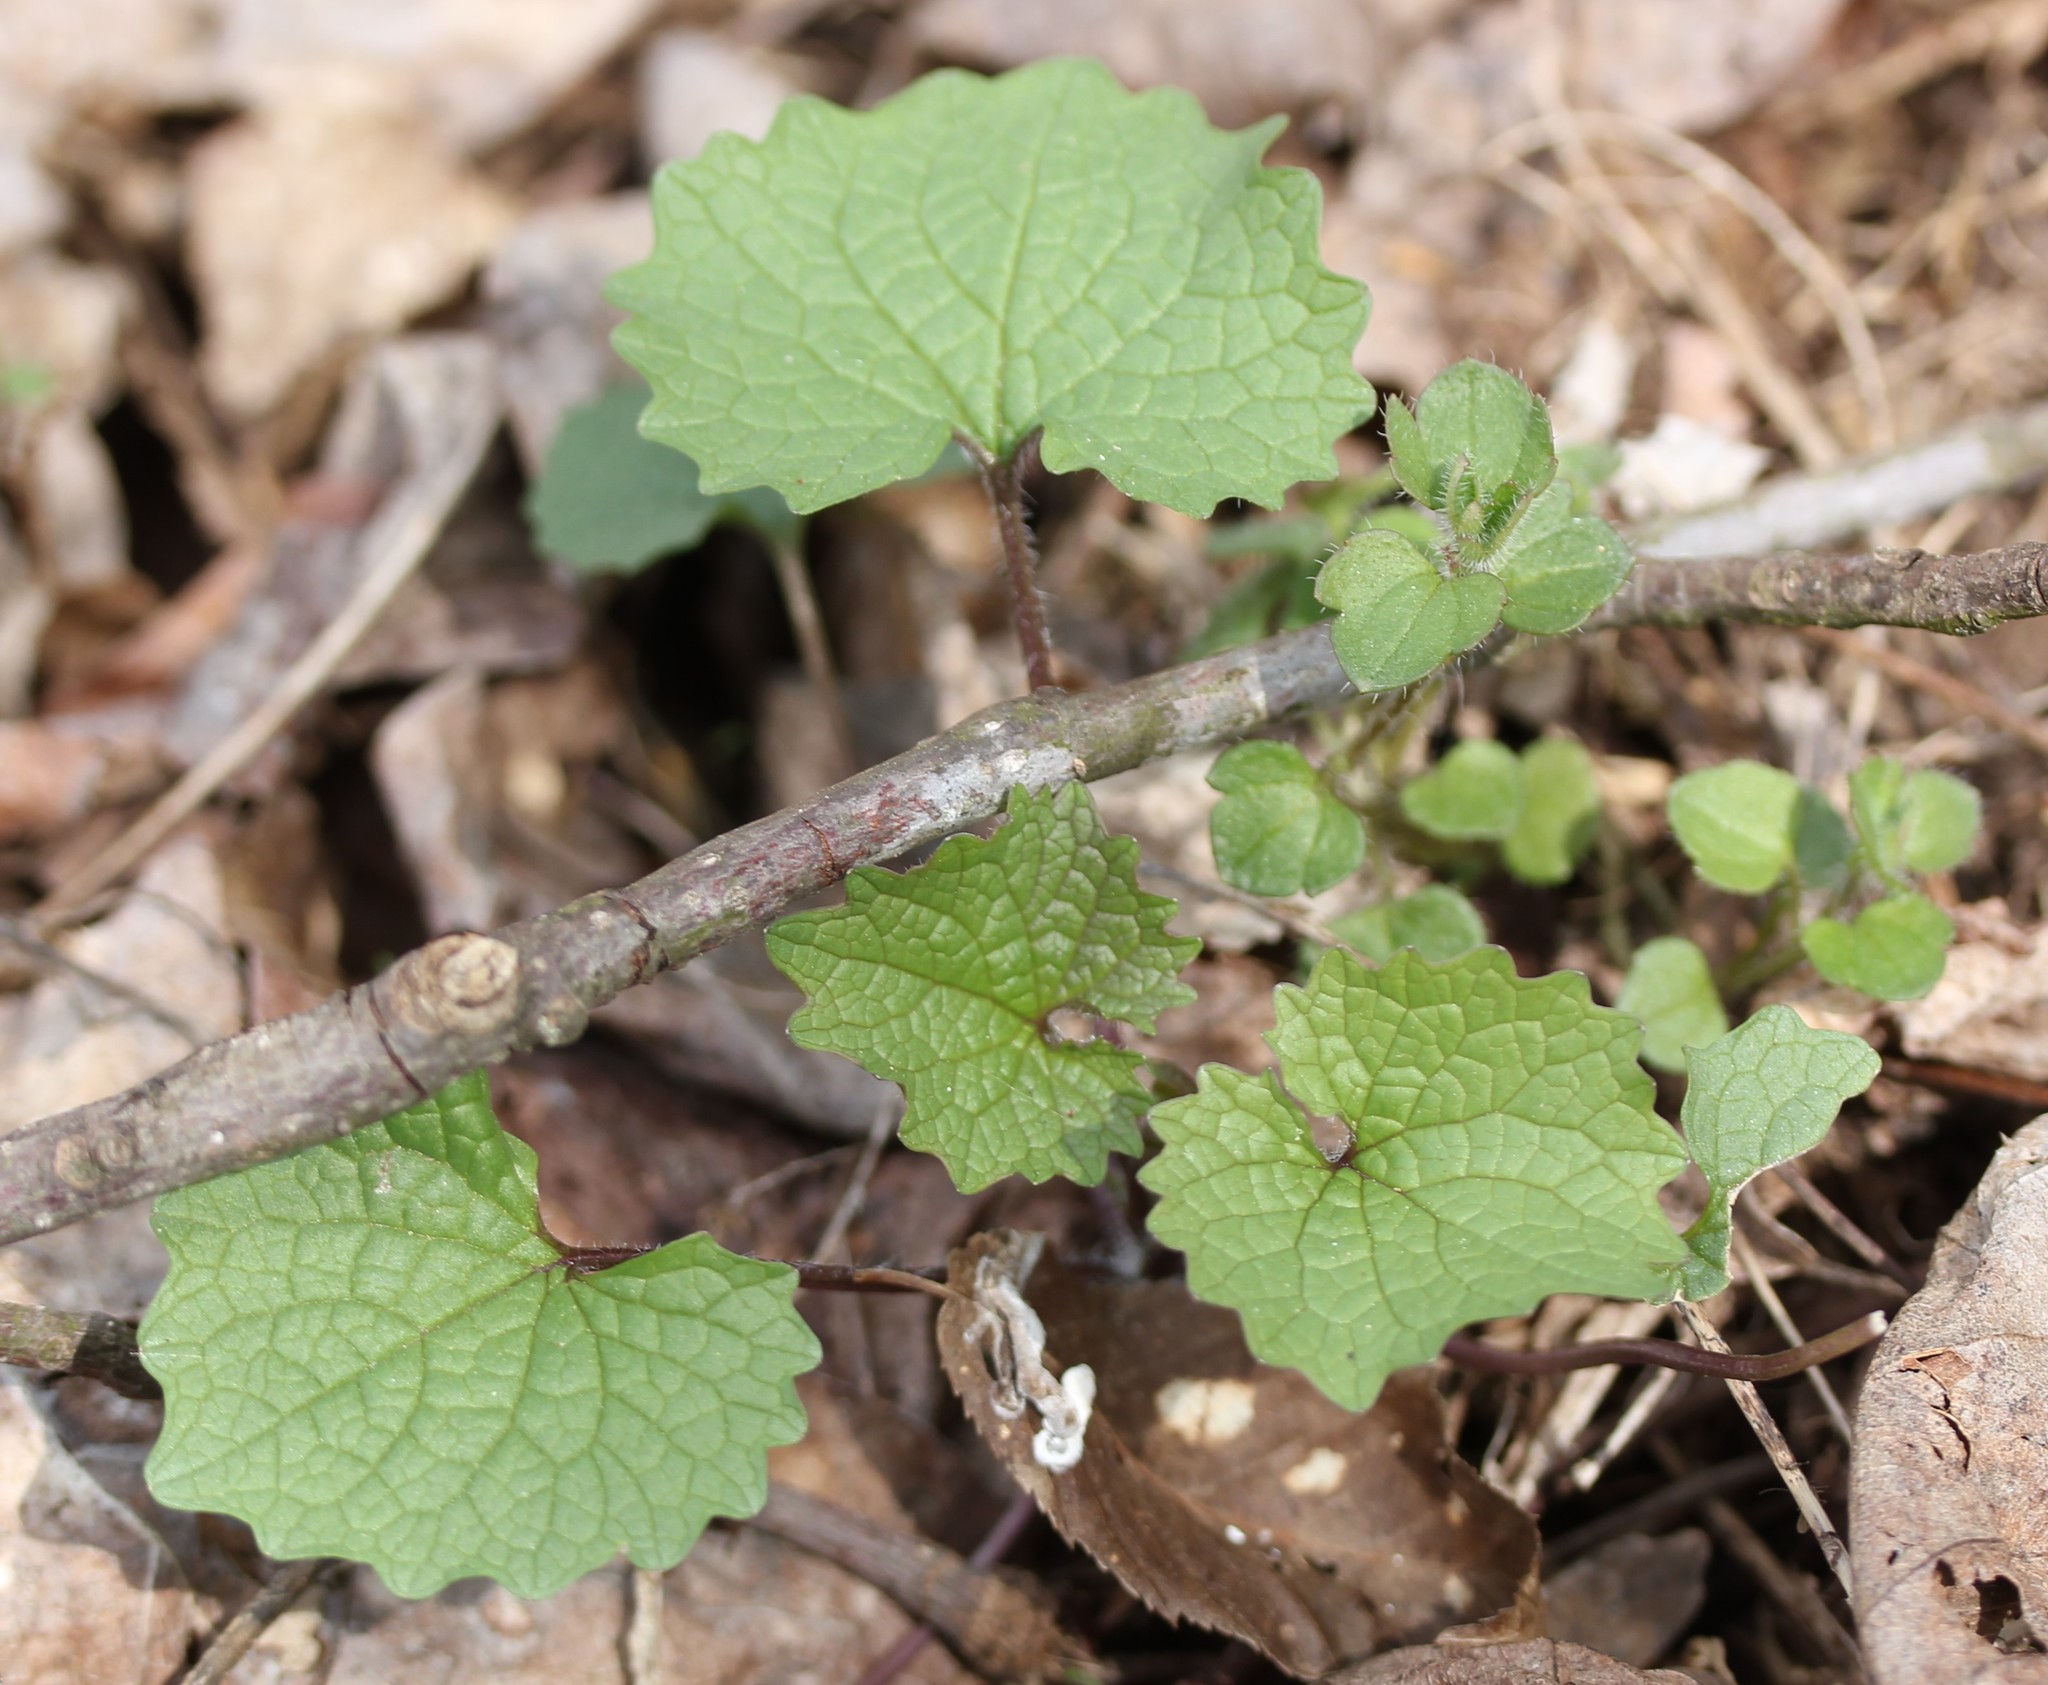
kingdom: Plantae
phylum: Tracheophyta
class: Magnoliopsida
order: Brassicales
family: Brassicaceae
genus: Alliaria
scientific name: Alliaria petiolata
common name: Garlic mustard
